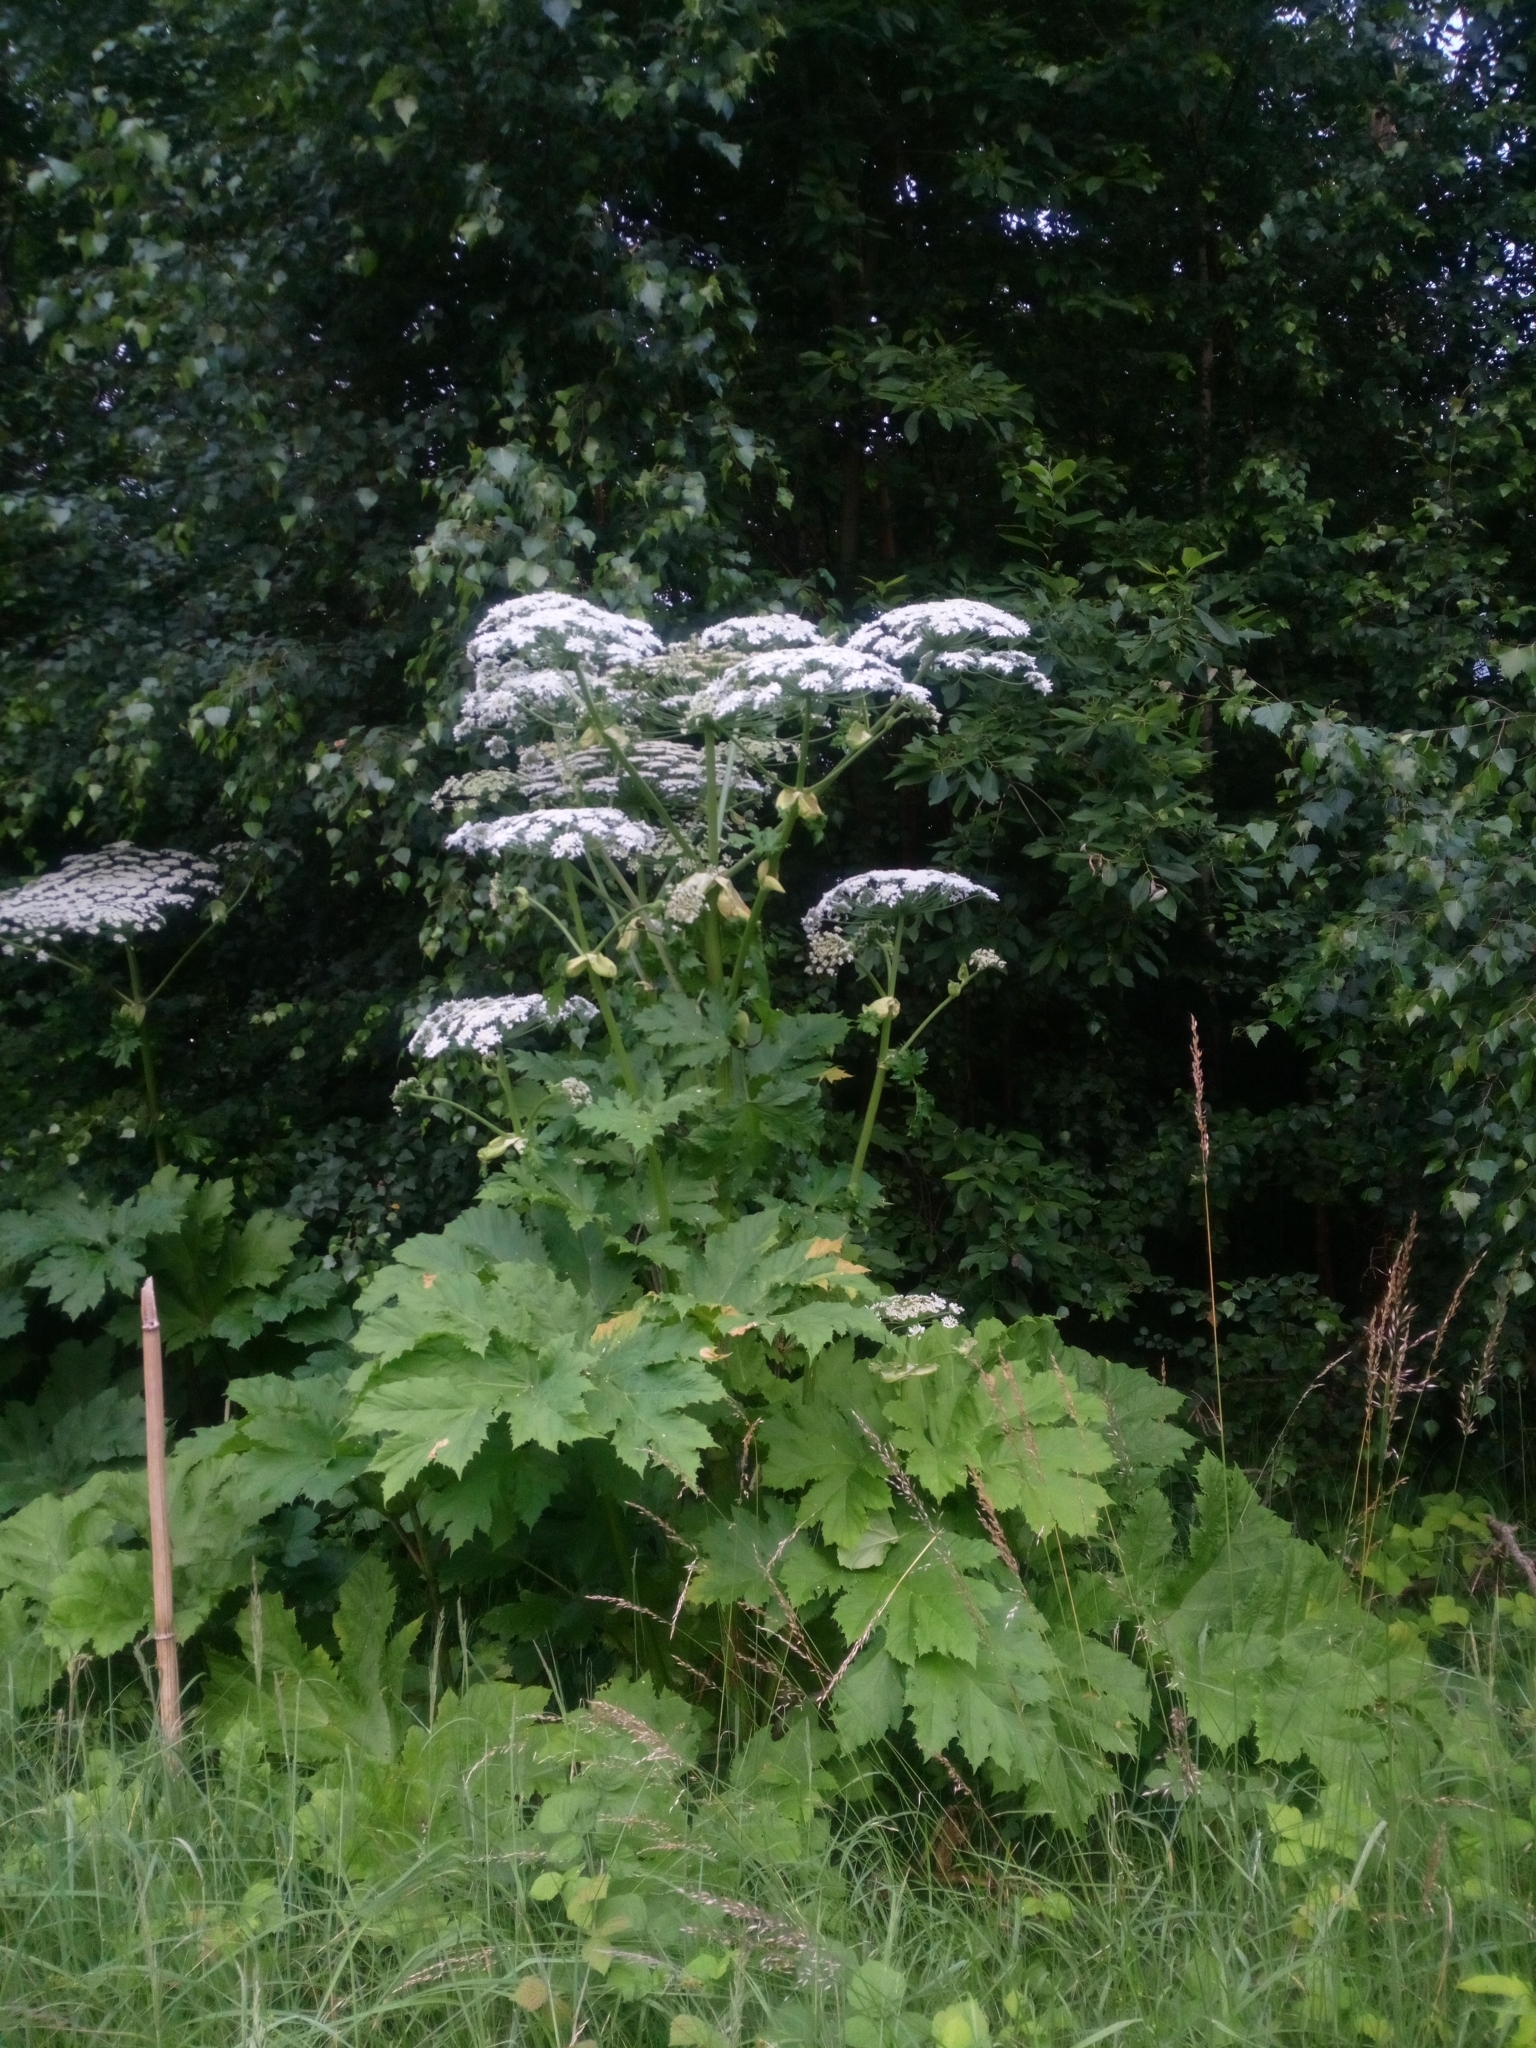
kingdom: Plantae
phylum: Tracheophyta
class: Magnoliopsida
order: Apiales
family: Apiaceae
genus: Heracleum
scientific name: Heracleum sosnowskyi
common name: Sosnowsky's hogweed
